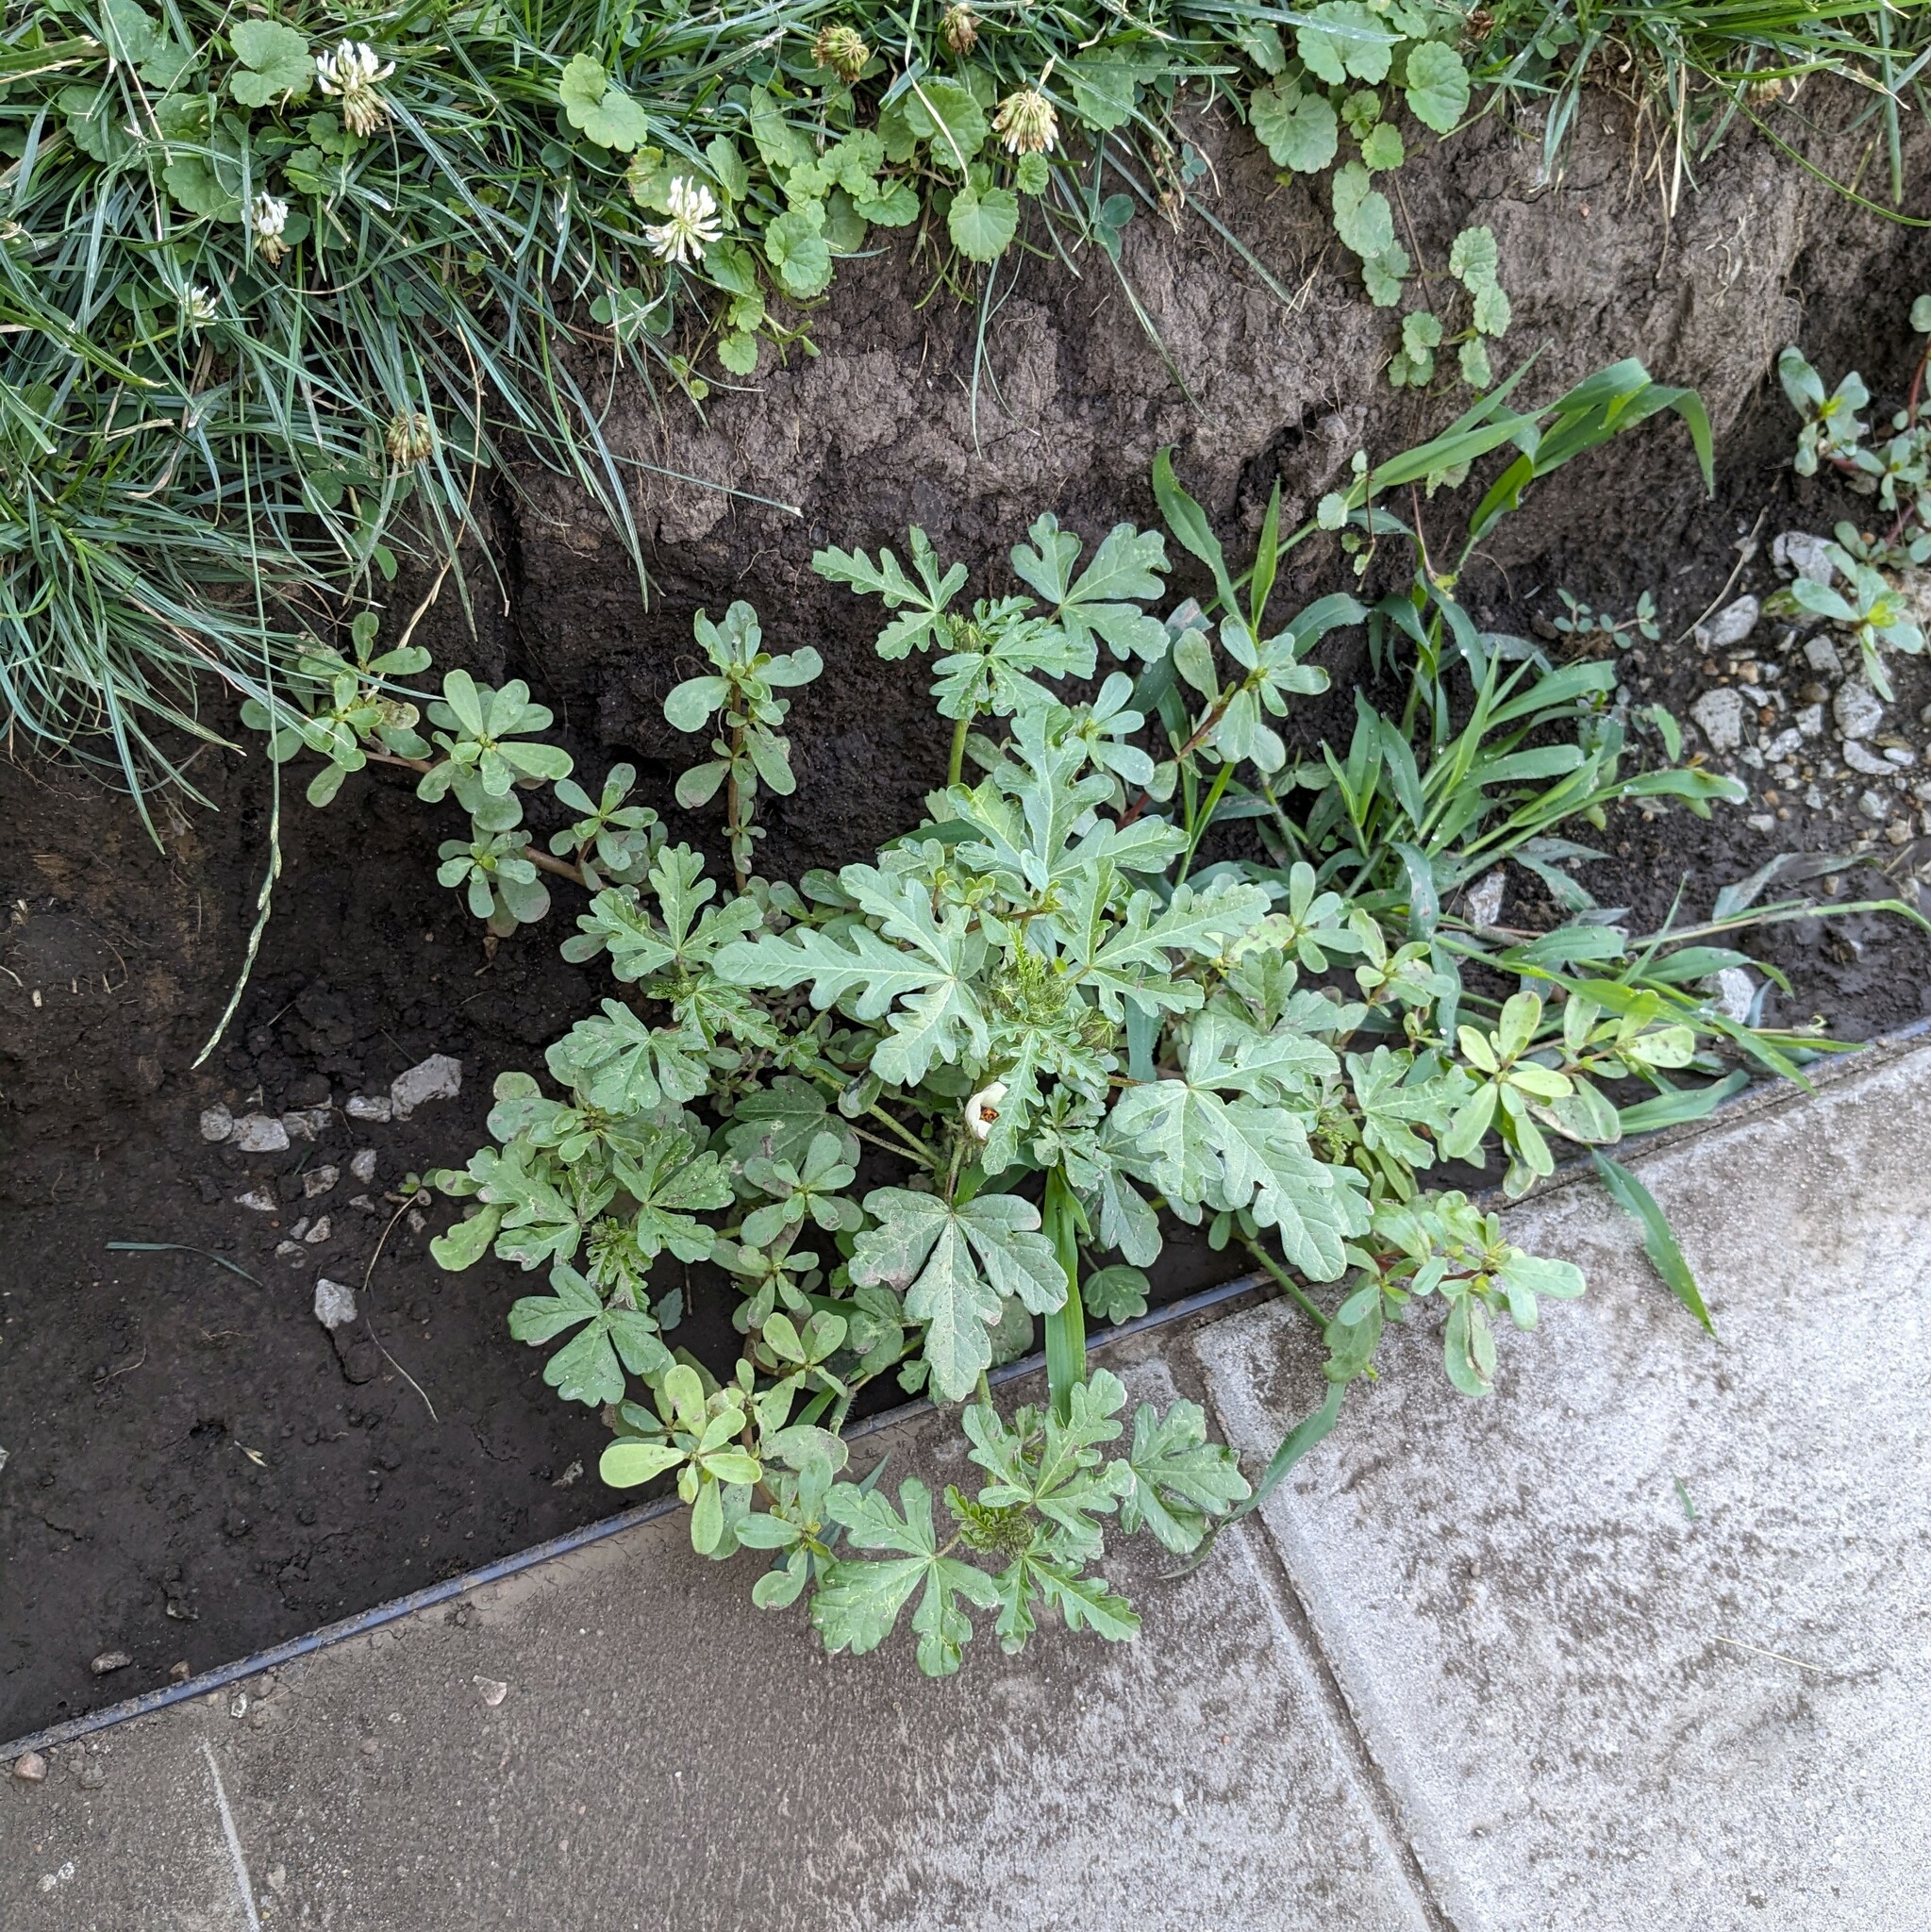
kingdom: Plantae
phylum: Tracheophyta
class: Magnoliopsida
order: Malvales
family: Malvaceae
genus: Hibiscus
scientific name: Hibiscus trionum
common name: Bladder ketmia
